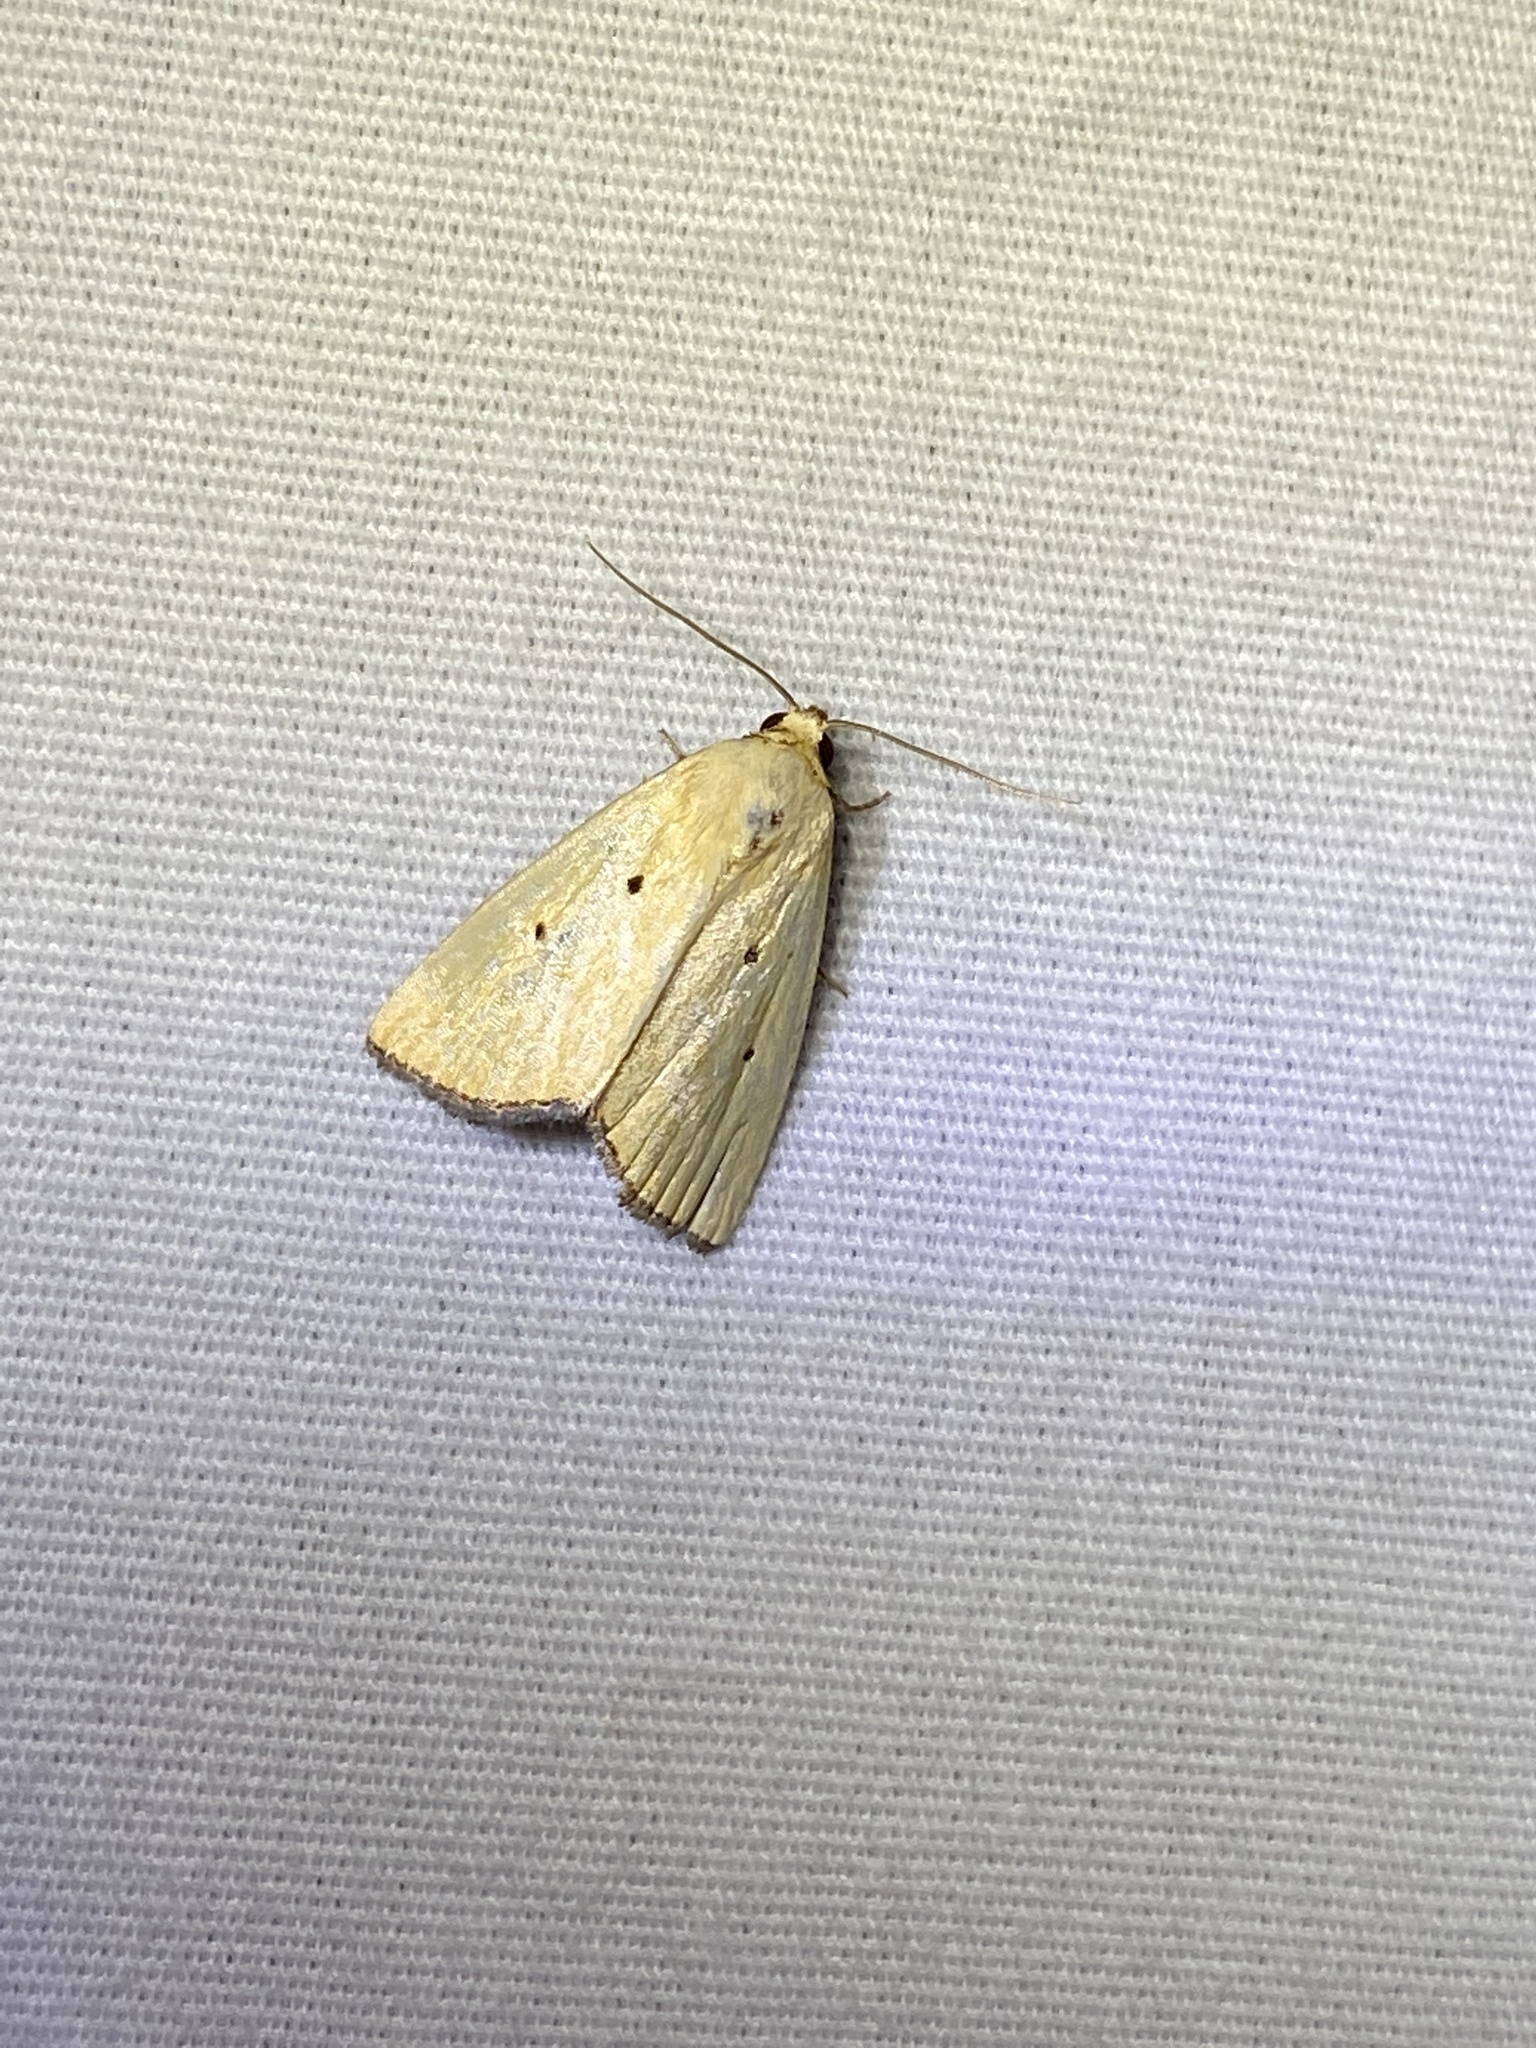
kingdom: Animalia
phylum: Arthropoda
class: Insecta
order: Lepidoptera
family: Noctuidae
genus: Marimatha
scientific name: Marimatha nigrofimbria
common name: Black-bordered lemon moth
